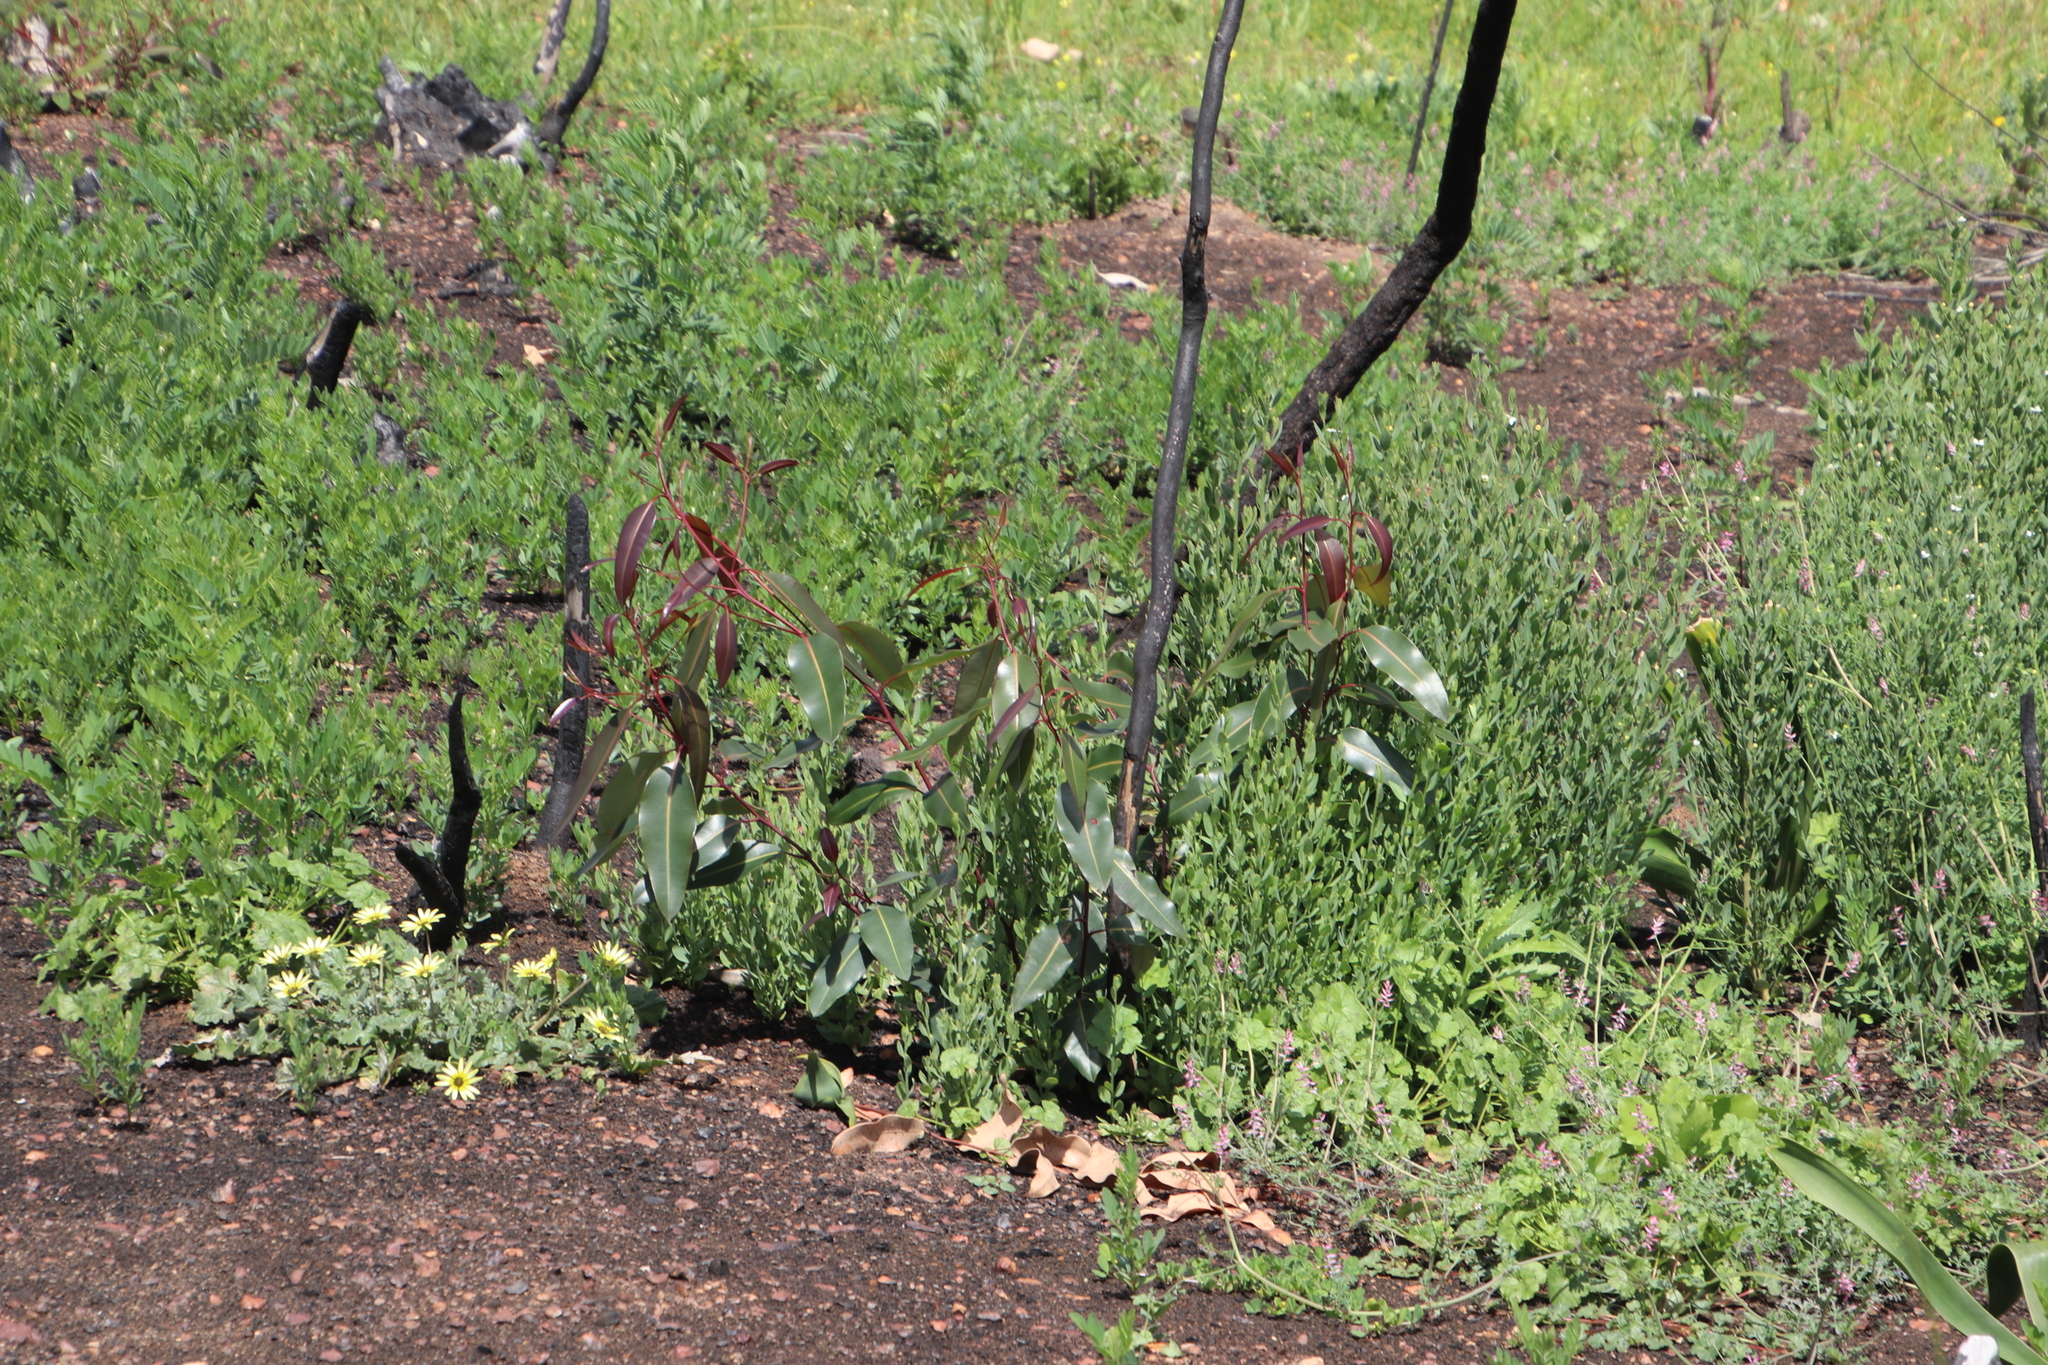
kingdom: Plantae
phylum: Tracheophyta
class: Magnoliopsida
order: Myrtales
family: Myrtaceae
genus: Corymbia
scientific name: Corymbia ficifolia
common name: Redflower gum
